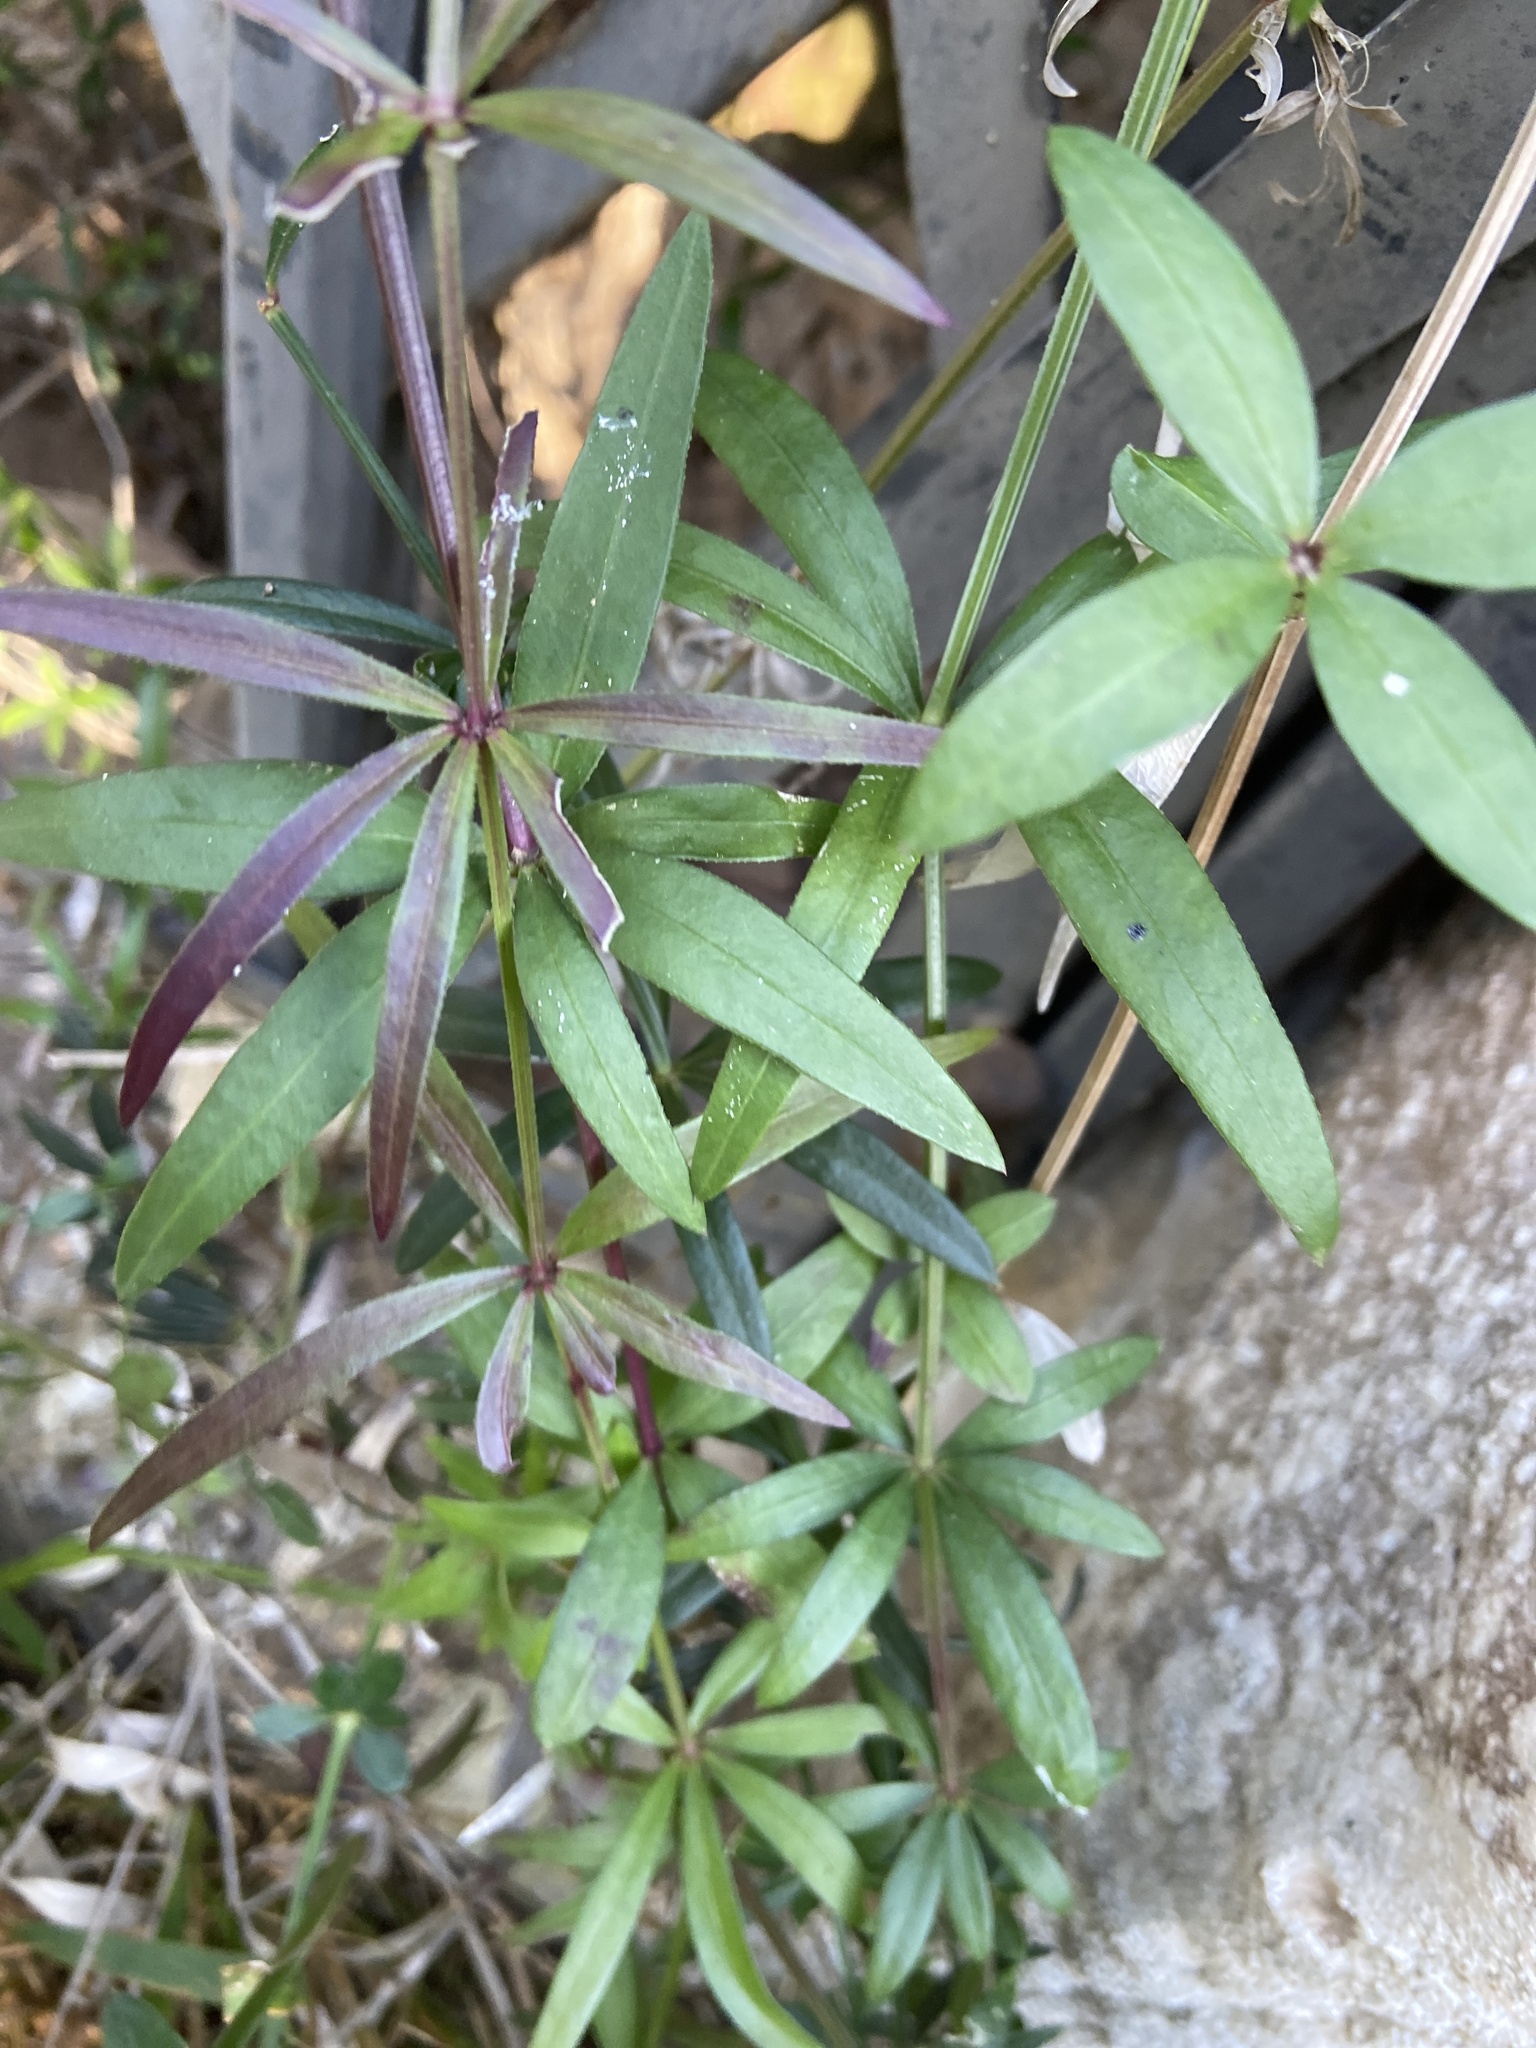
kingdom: Plantae
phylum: Tracheophyta
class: Magnoliopsida
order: Gentianales
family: Rubiaceae
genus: Rubia
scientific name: Rubia peregrina
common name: Wild madder
